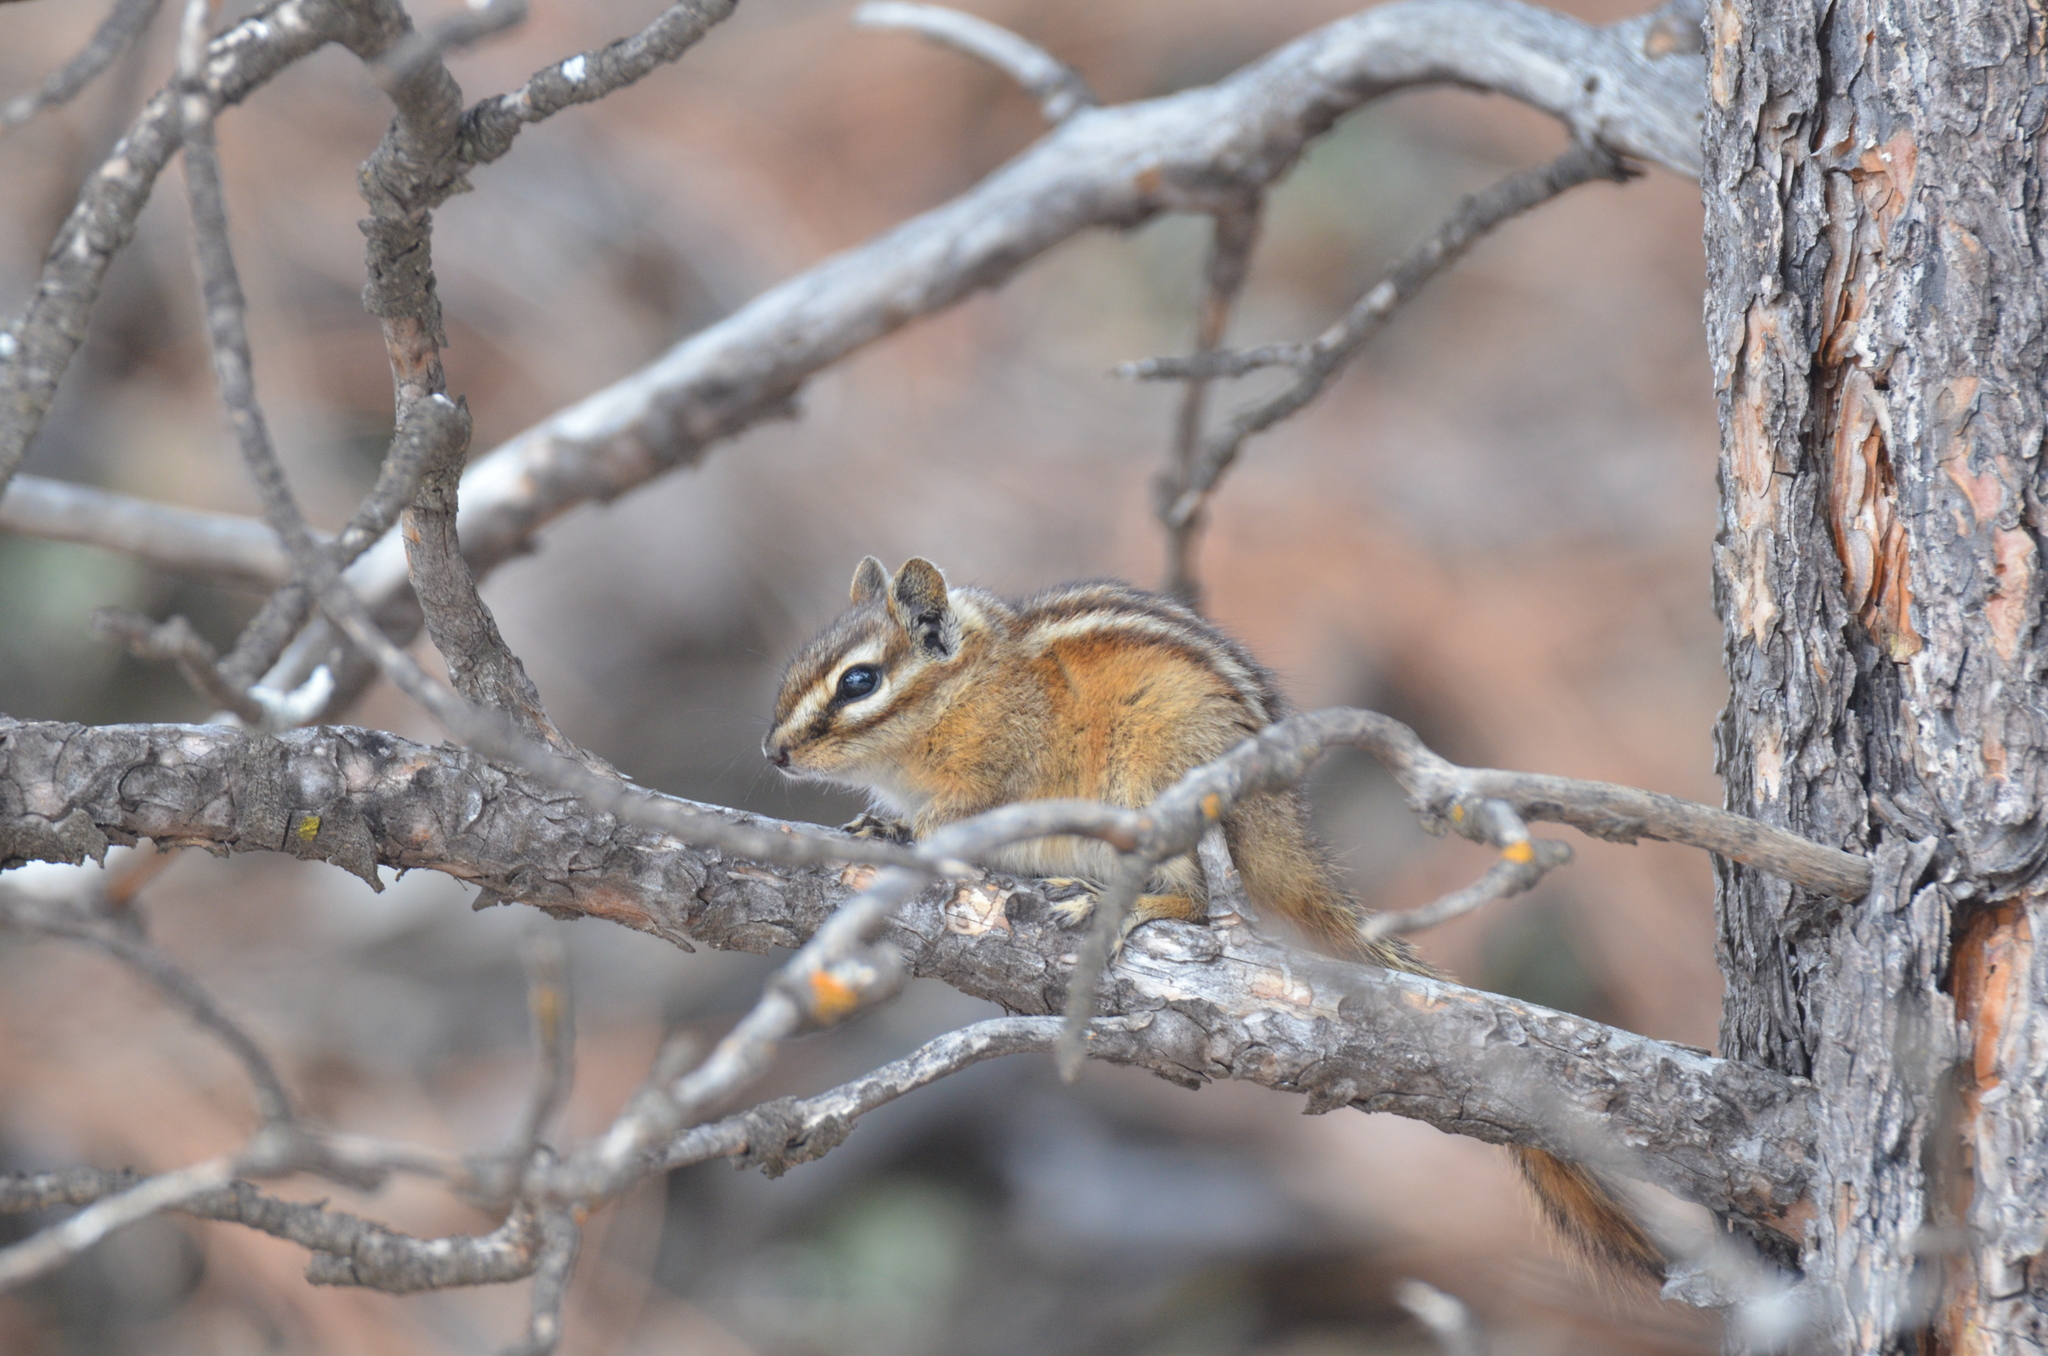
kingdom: Animalia
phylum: Chordata
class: Mammalia
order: Rodentia
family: Sciuridae
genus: Tamias
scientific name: Tamias minimus
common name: Least chipmunk
